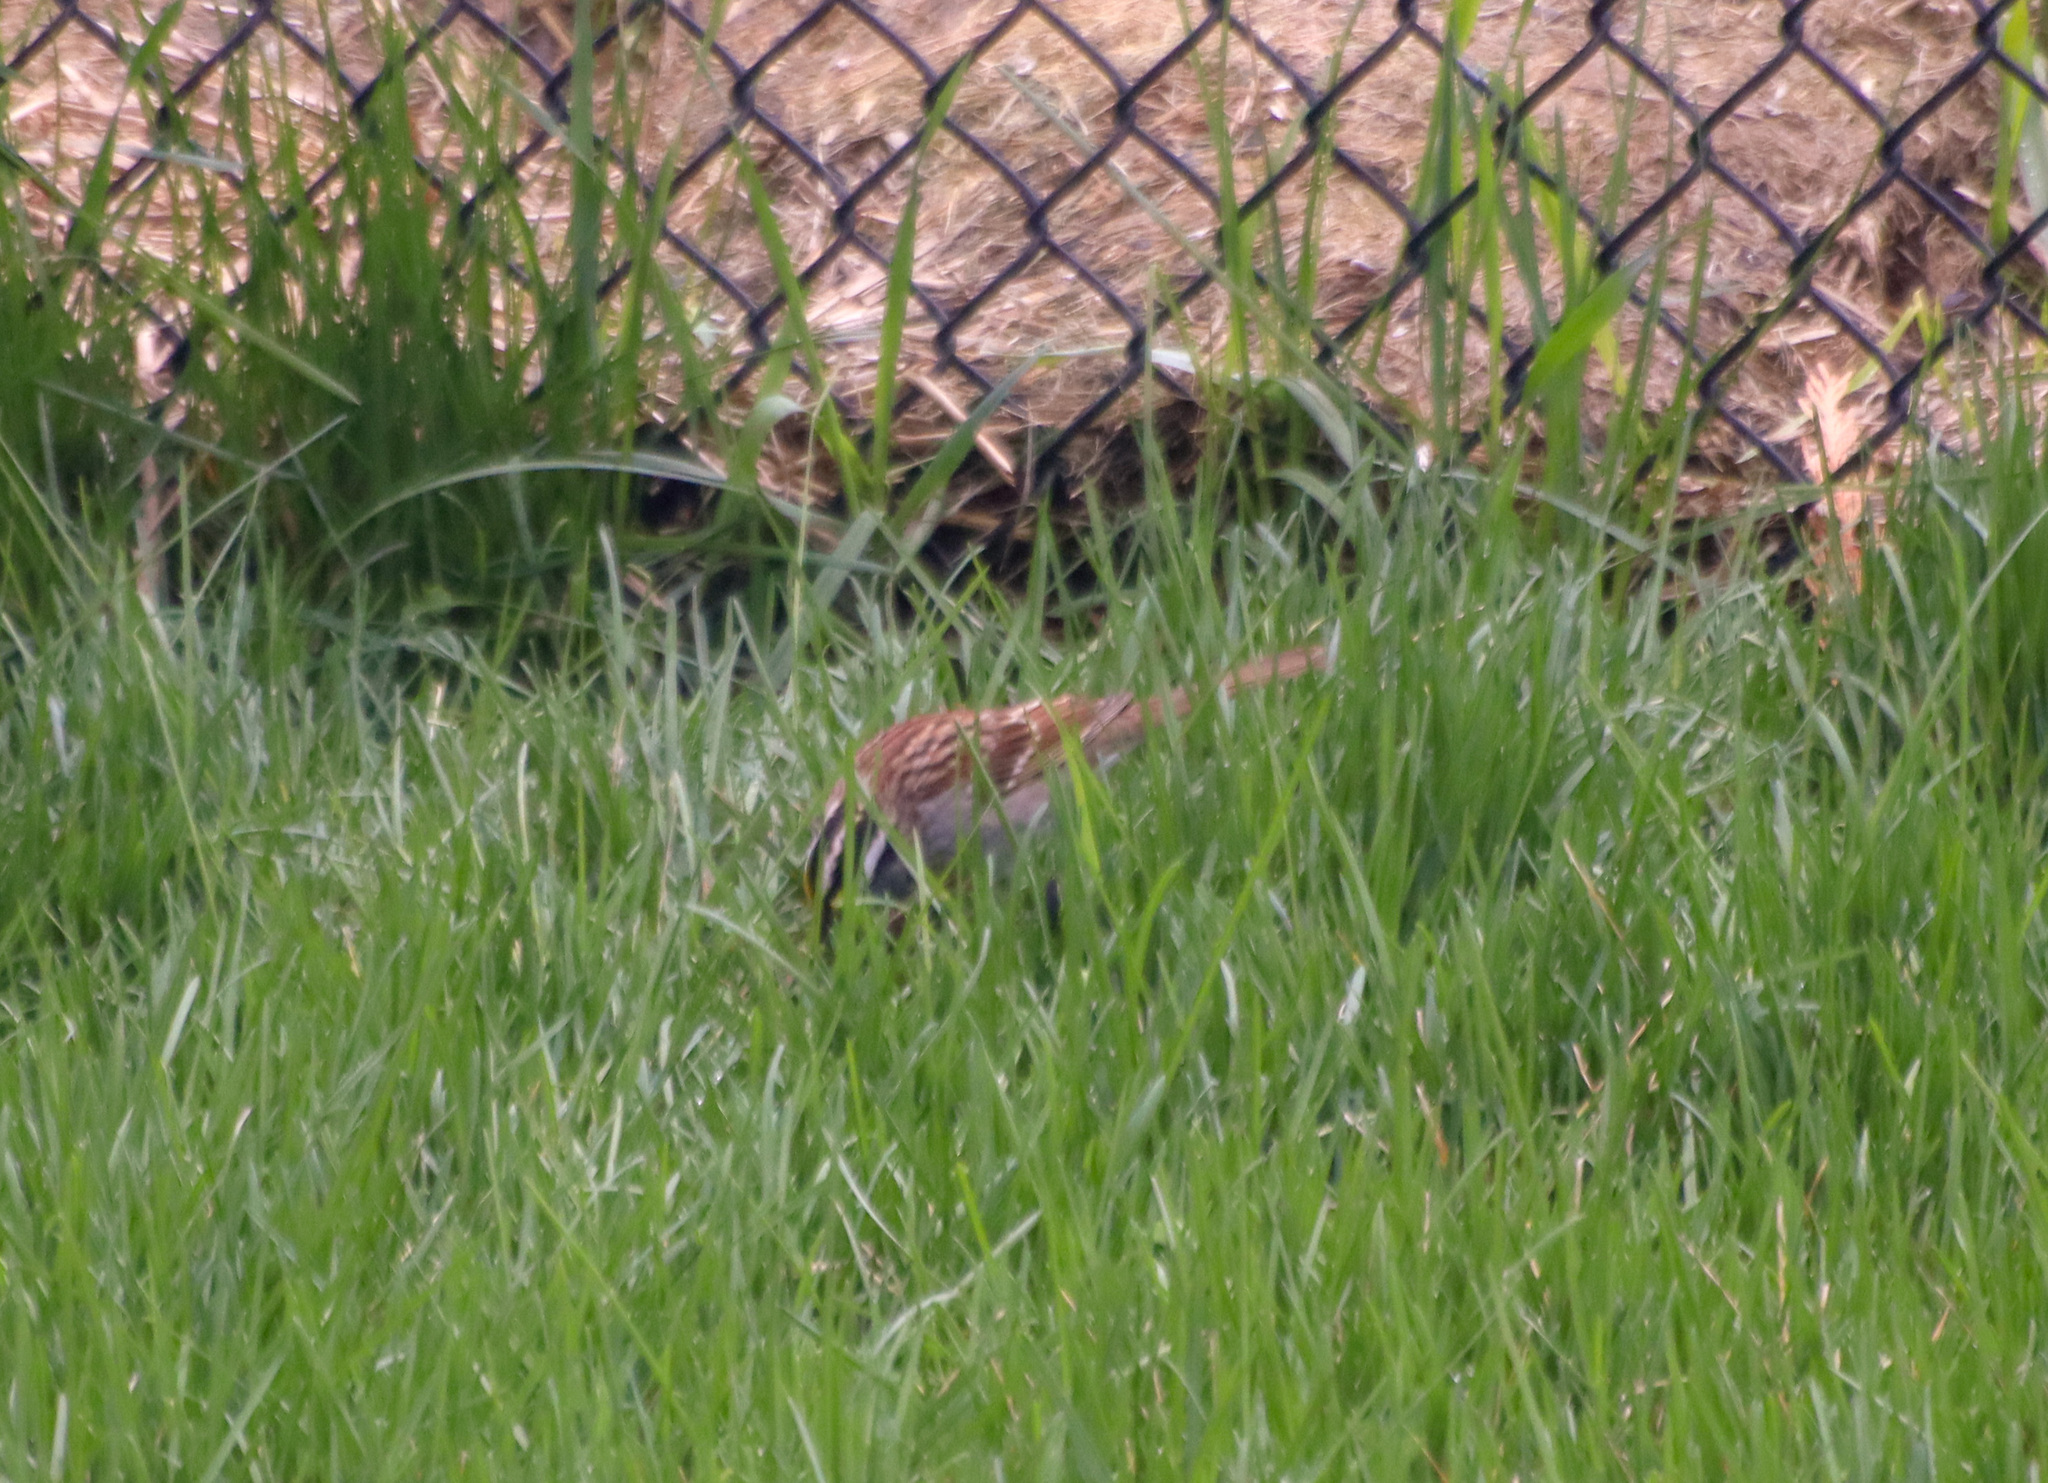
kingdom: Animalia
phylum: Chordata
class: Aves
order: Passeriformes
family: Passerellidae
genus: Zonotrichia
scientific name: Zonotrichia albicollis
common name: White-throated sparrow
